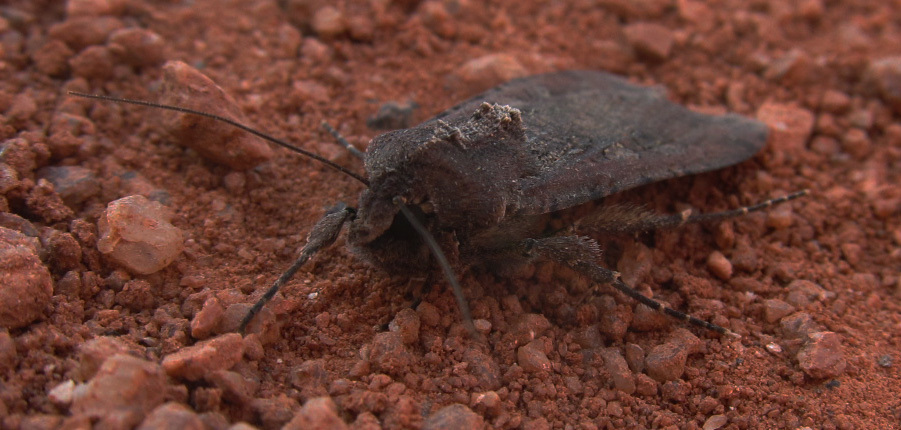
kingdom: Animalia
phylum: Arthropoda
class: Insecta
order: Lepidoptera
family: Noctuidae
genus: Peridroma
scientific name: Peridroma saucia
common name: Pearly underwing
